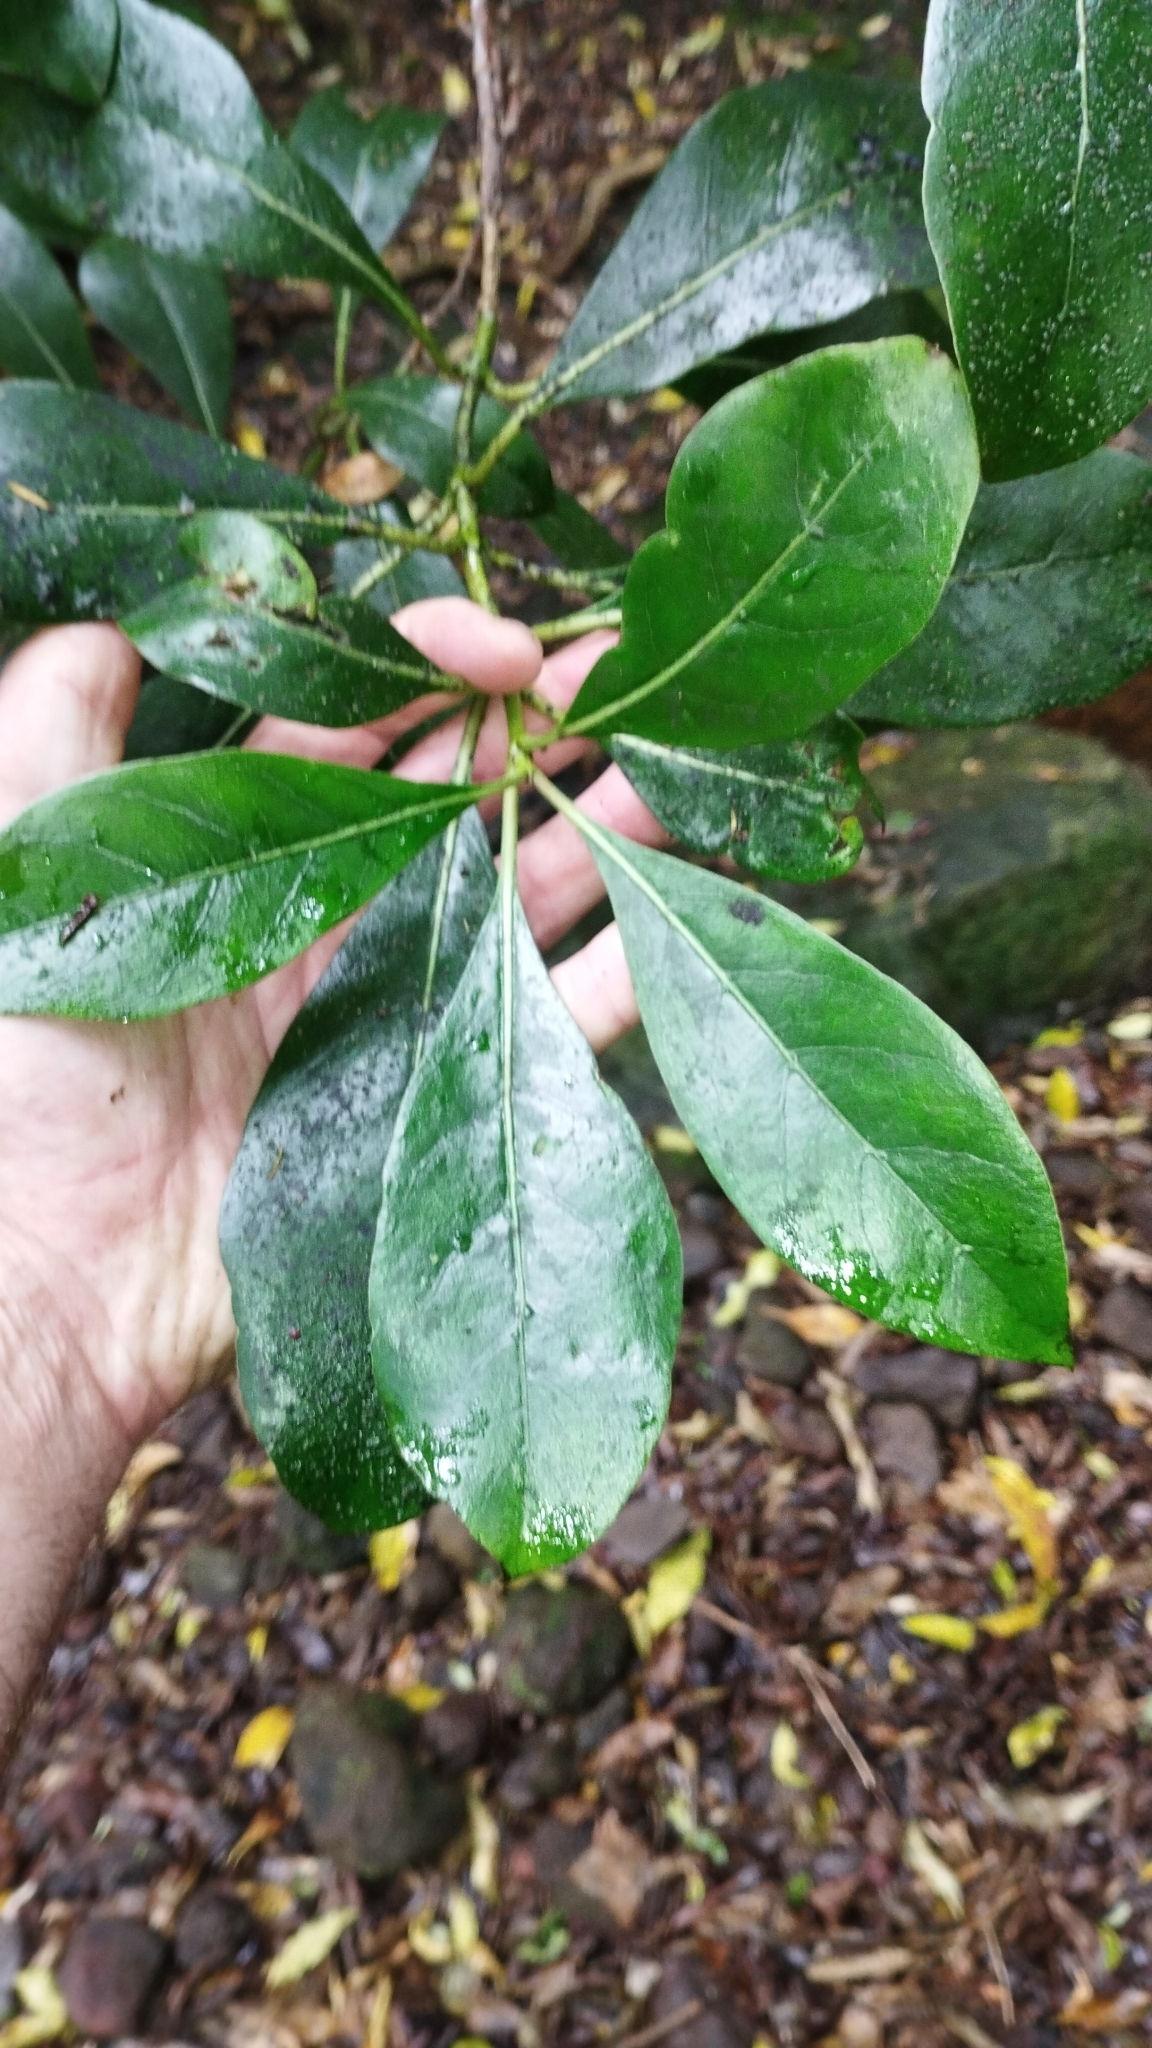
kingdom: Plantae
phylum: Tracheophyta
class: Magnoliopsida
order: Gentianales
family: Rubiaceae
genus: Coprosma
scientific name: Coprosma lucida
